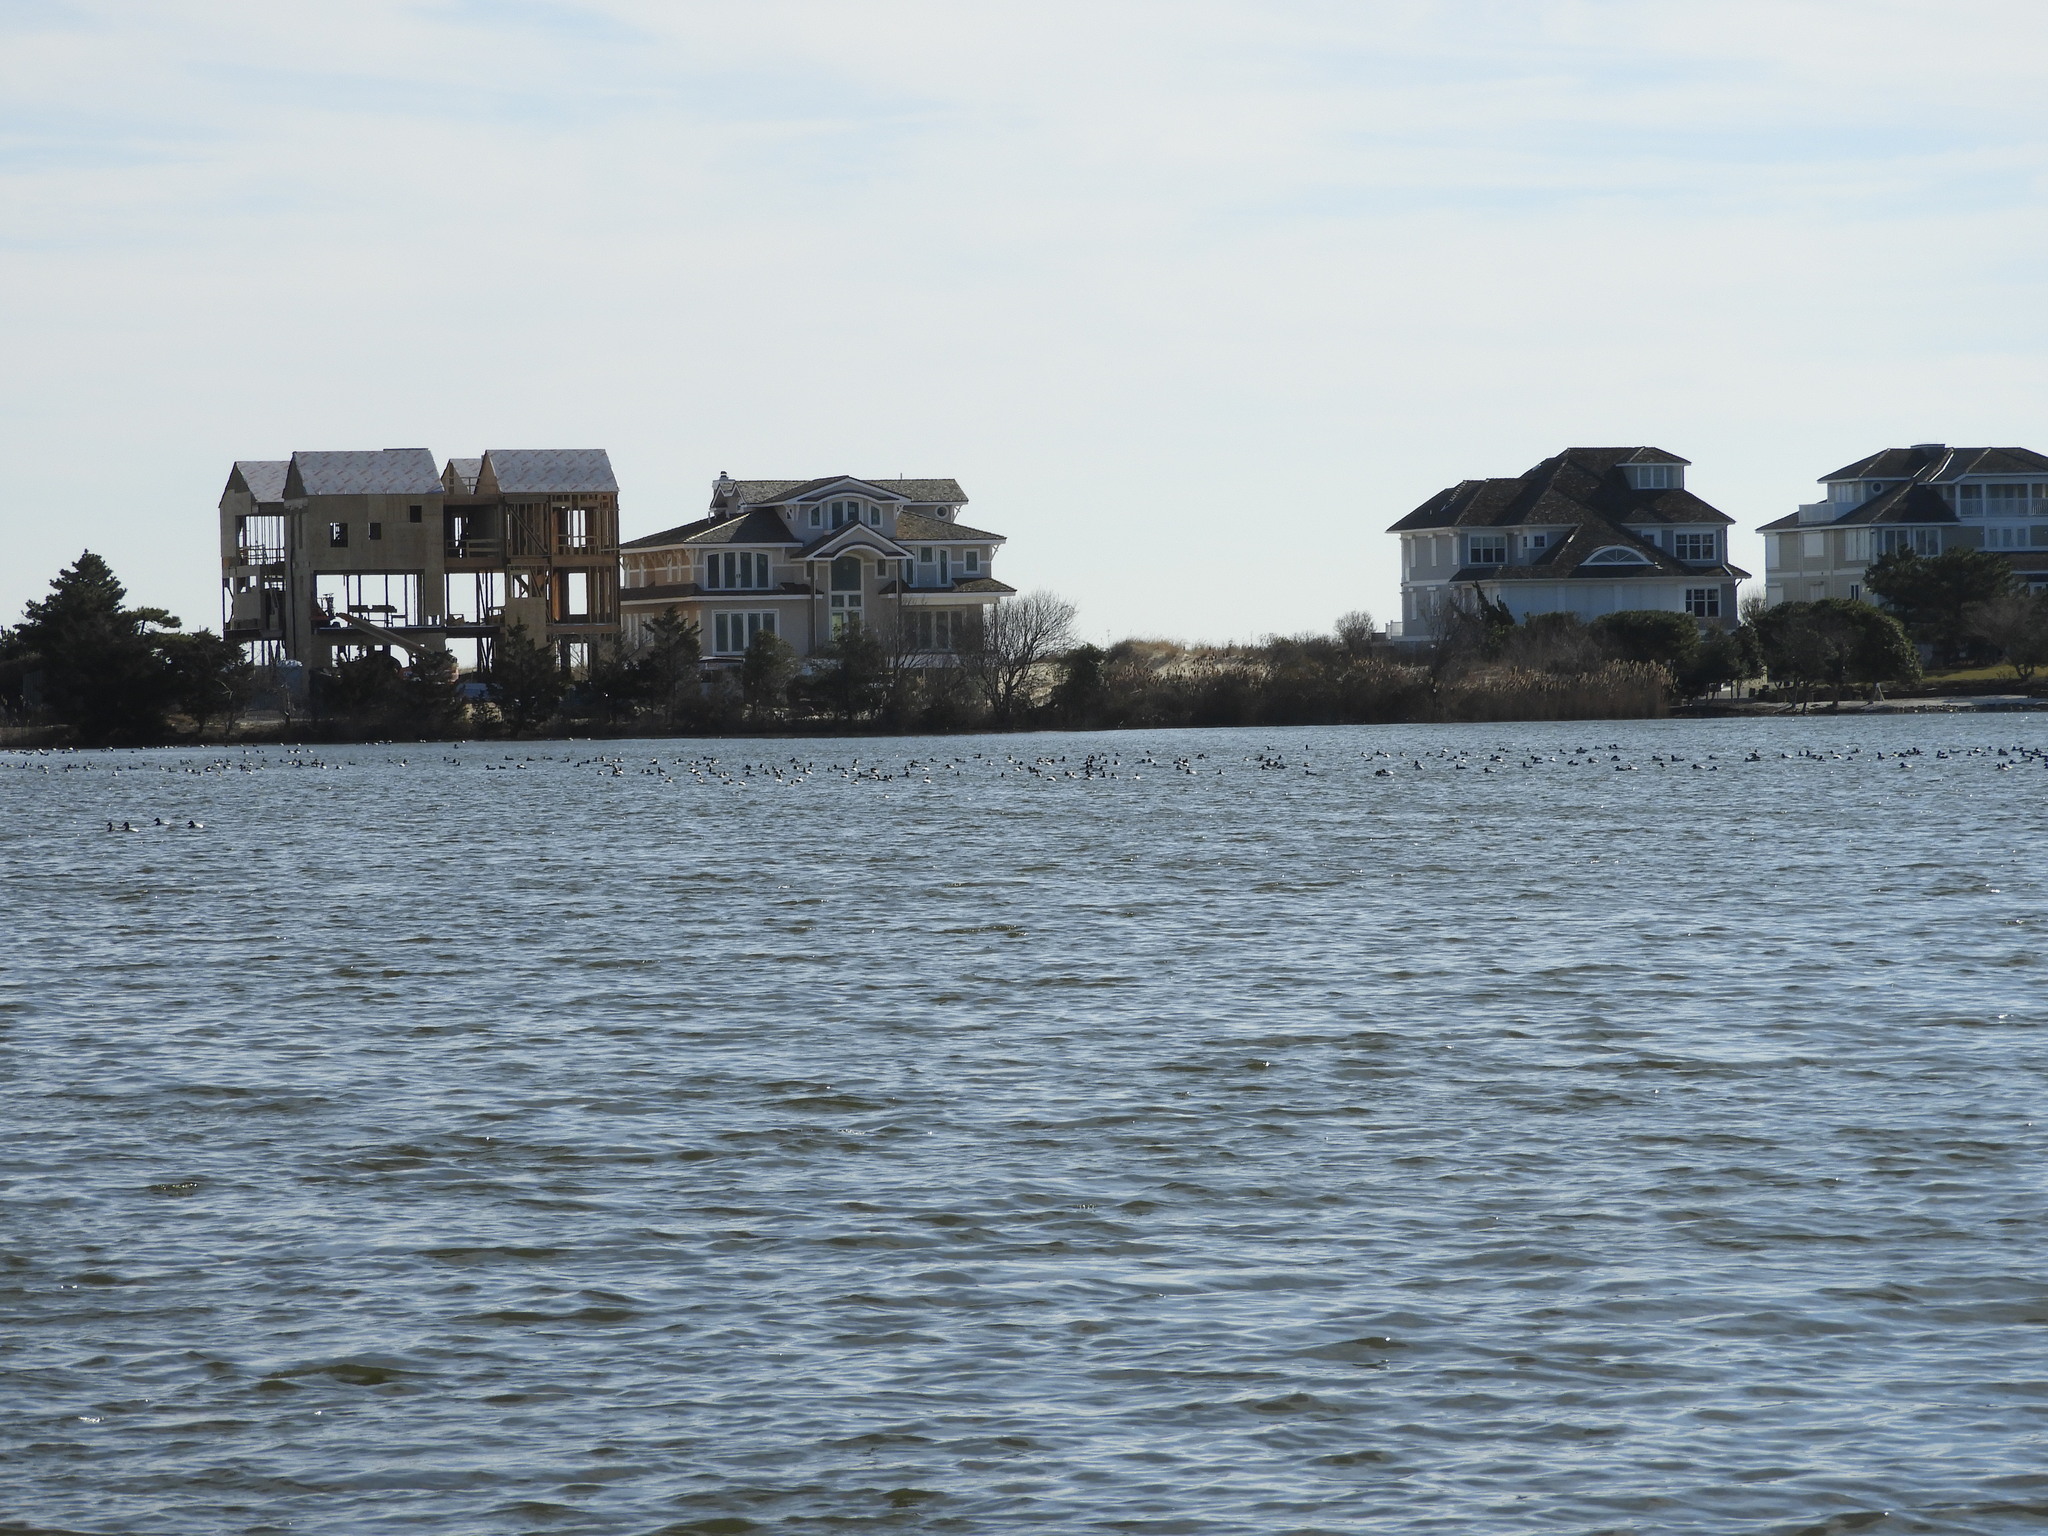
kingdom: Animalia
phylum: Chordata
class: Aves
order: Anseriformes
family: Anatidae
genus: Aythya
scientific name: Aythya valisineria
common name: Canvasback
